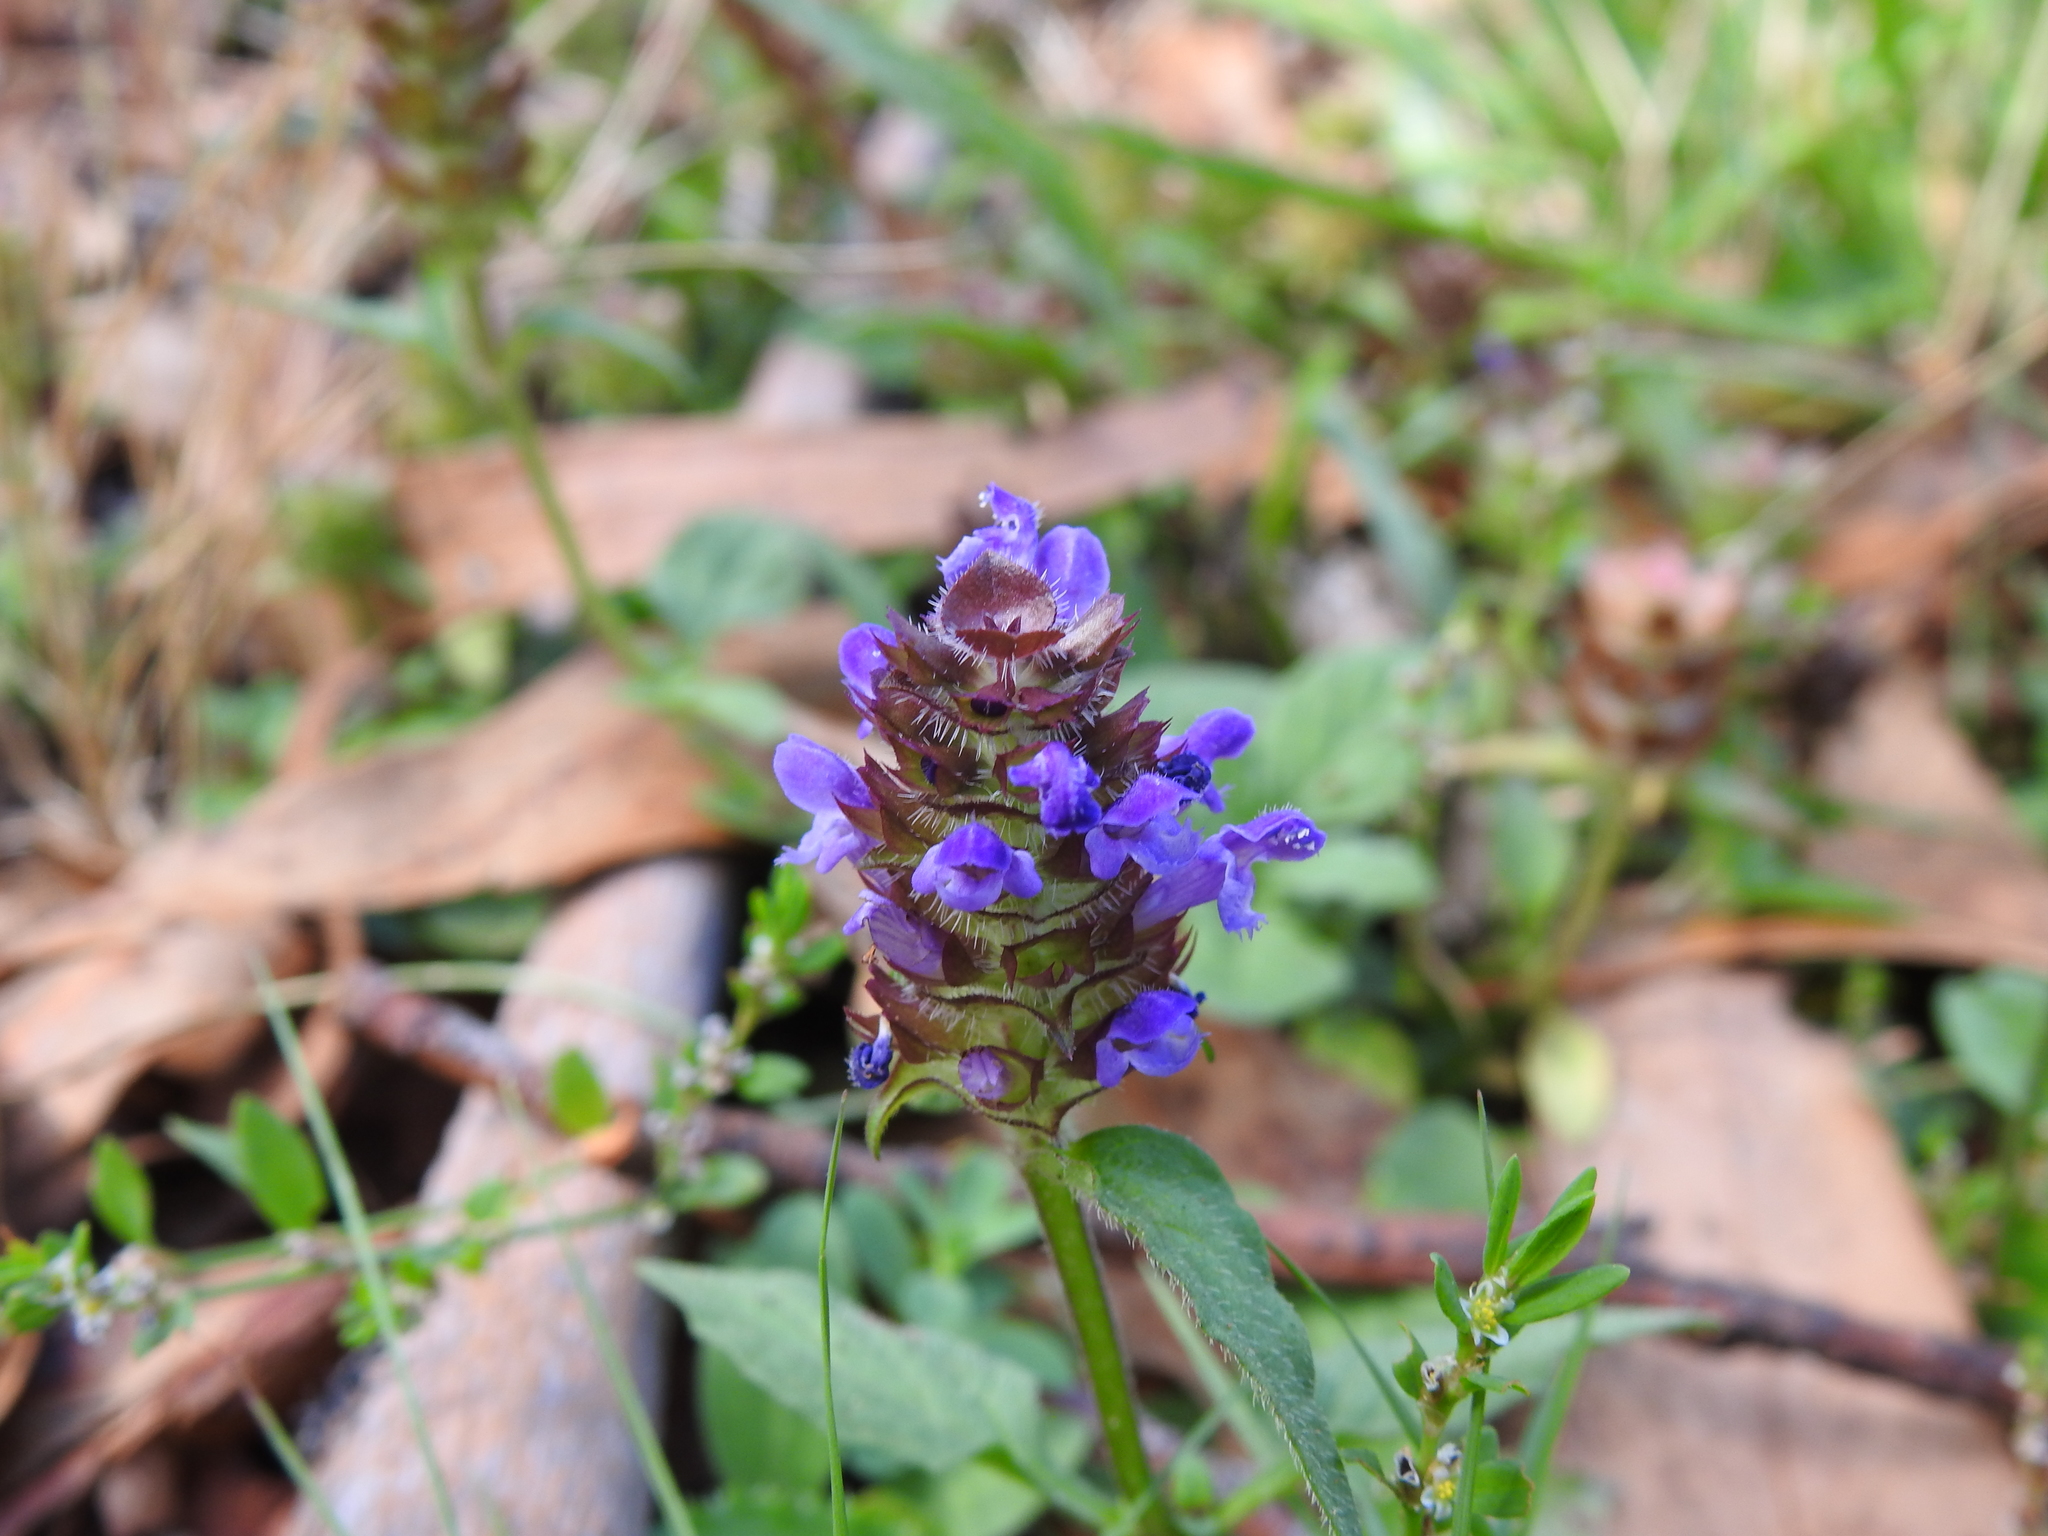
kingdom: Plantae
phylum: Tracheophyta
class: Magnoliopsida
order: Lamiales
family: Lamiaceae
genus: Prunella
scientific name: Prunella vulgaris
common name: Heal-all
